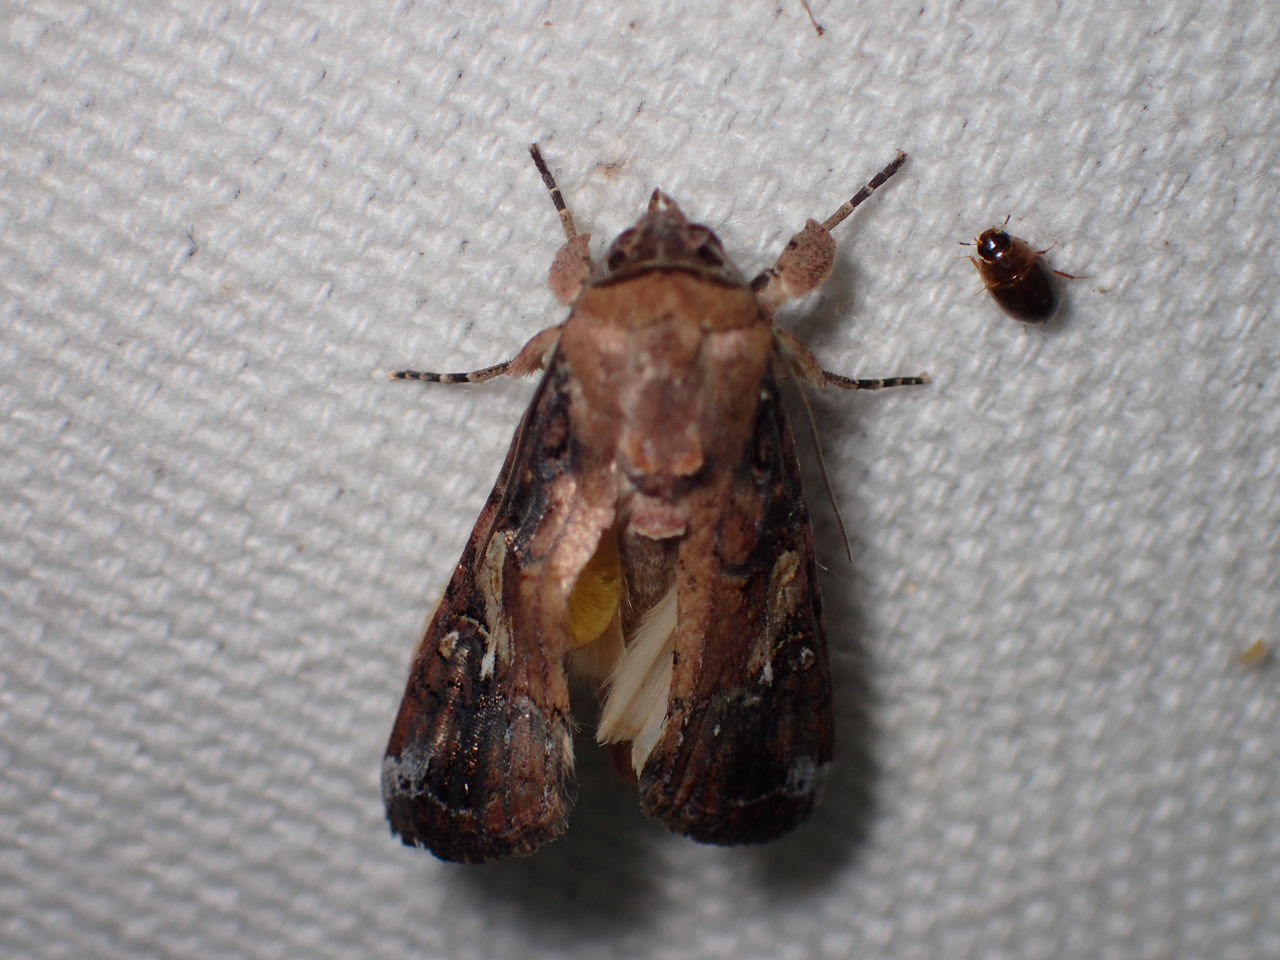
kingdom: Animalia
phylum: Arthropoda
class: Insecta
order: Lepidoptera
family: Noctuidae
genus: Spodoptera
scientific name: Spodoptera frugiperda
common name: Fall armyworm
